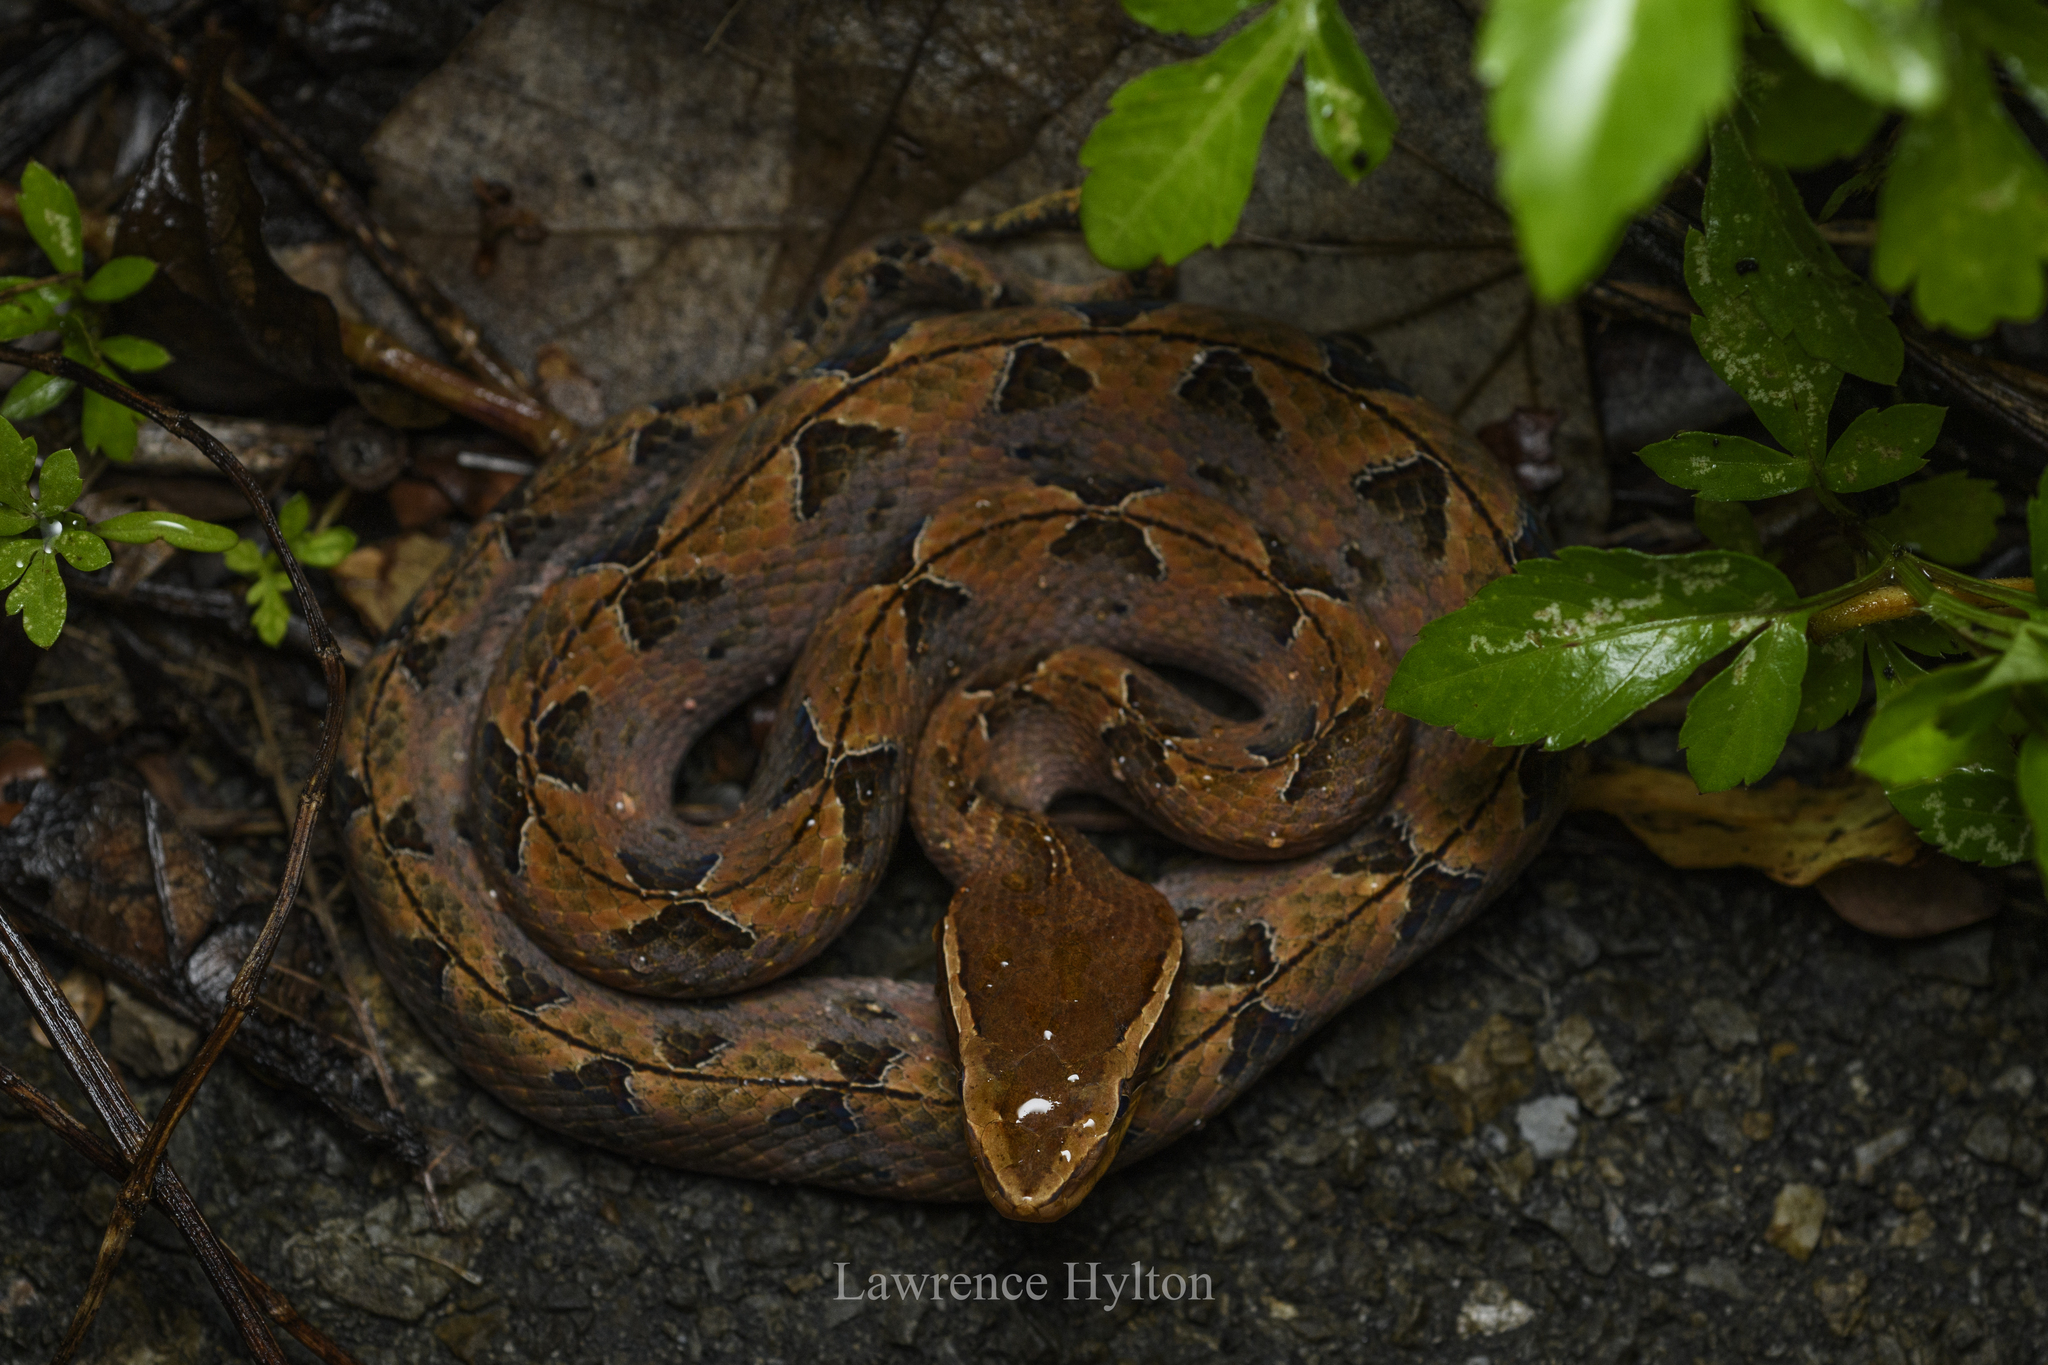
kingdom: Animalia
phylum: Chordata
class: Squamata
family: Viperidae
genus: Calloselasma
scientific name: Calloselasma rhodostoma
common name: Malayan pit viper
